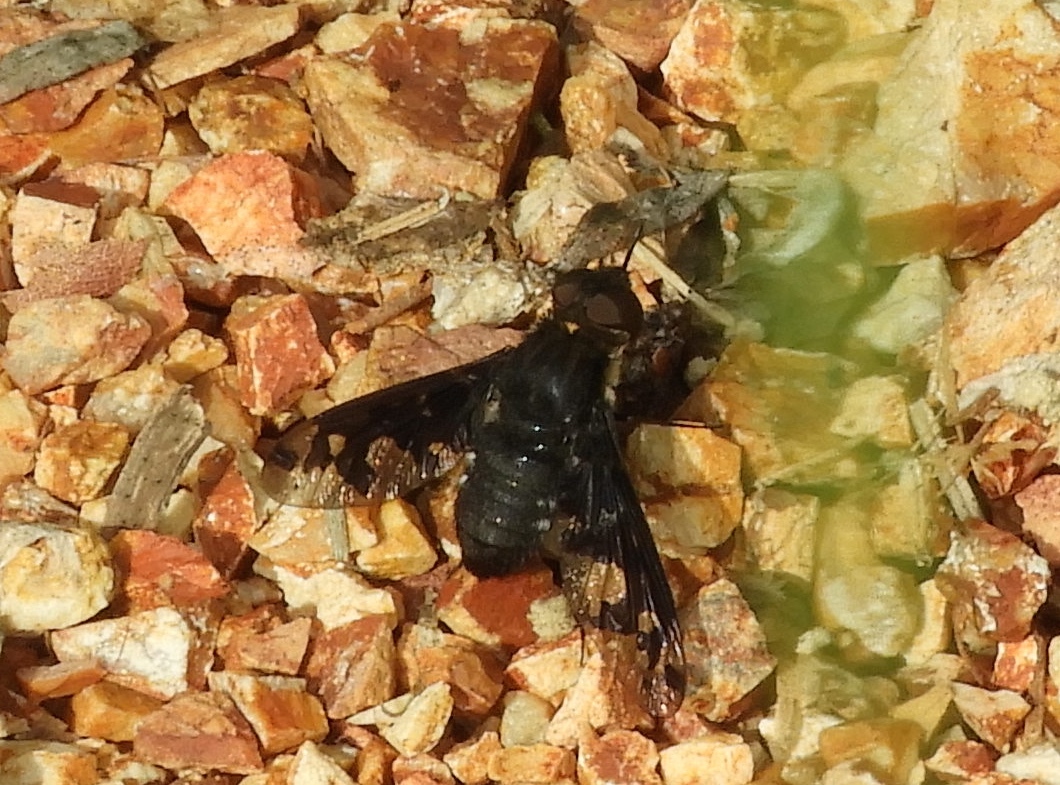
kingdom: Animalia
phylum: Arthropoda
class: Insecta
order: Diptera
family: Bombyliidae
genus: Stonyx
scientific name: Stonyx
